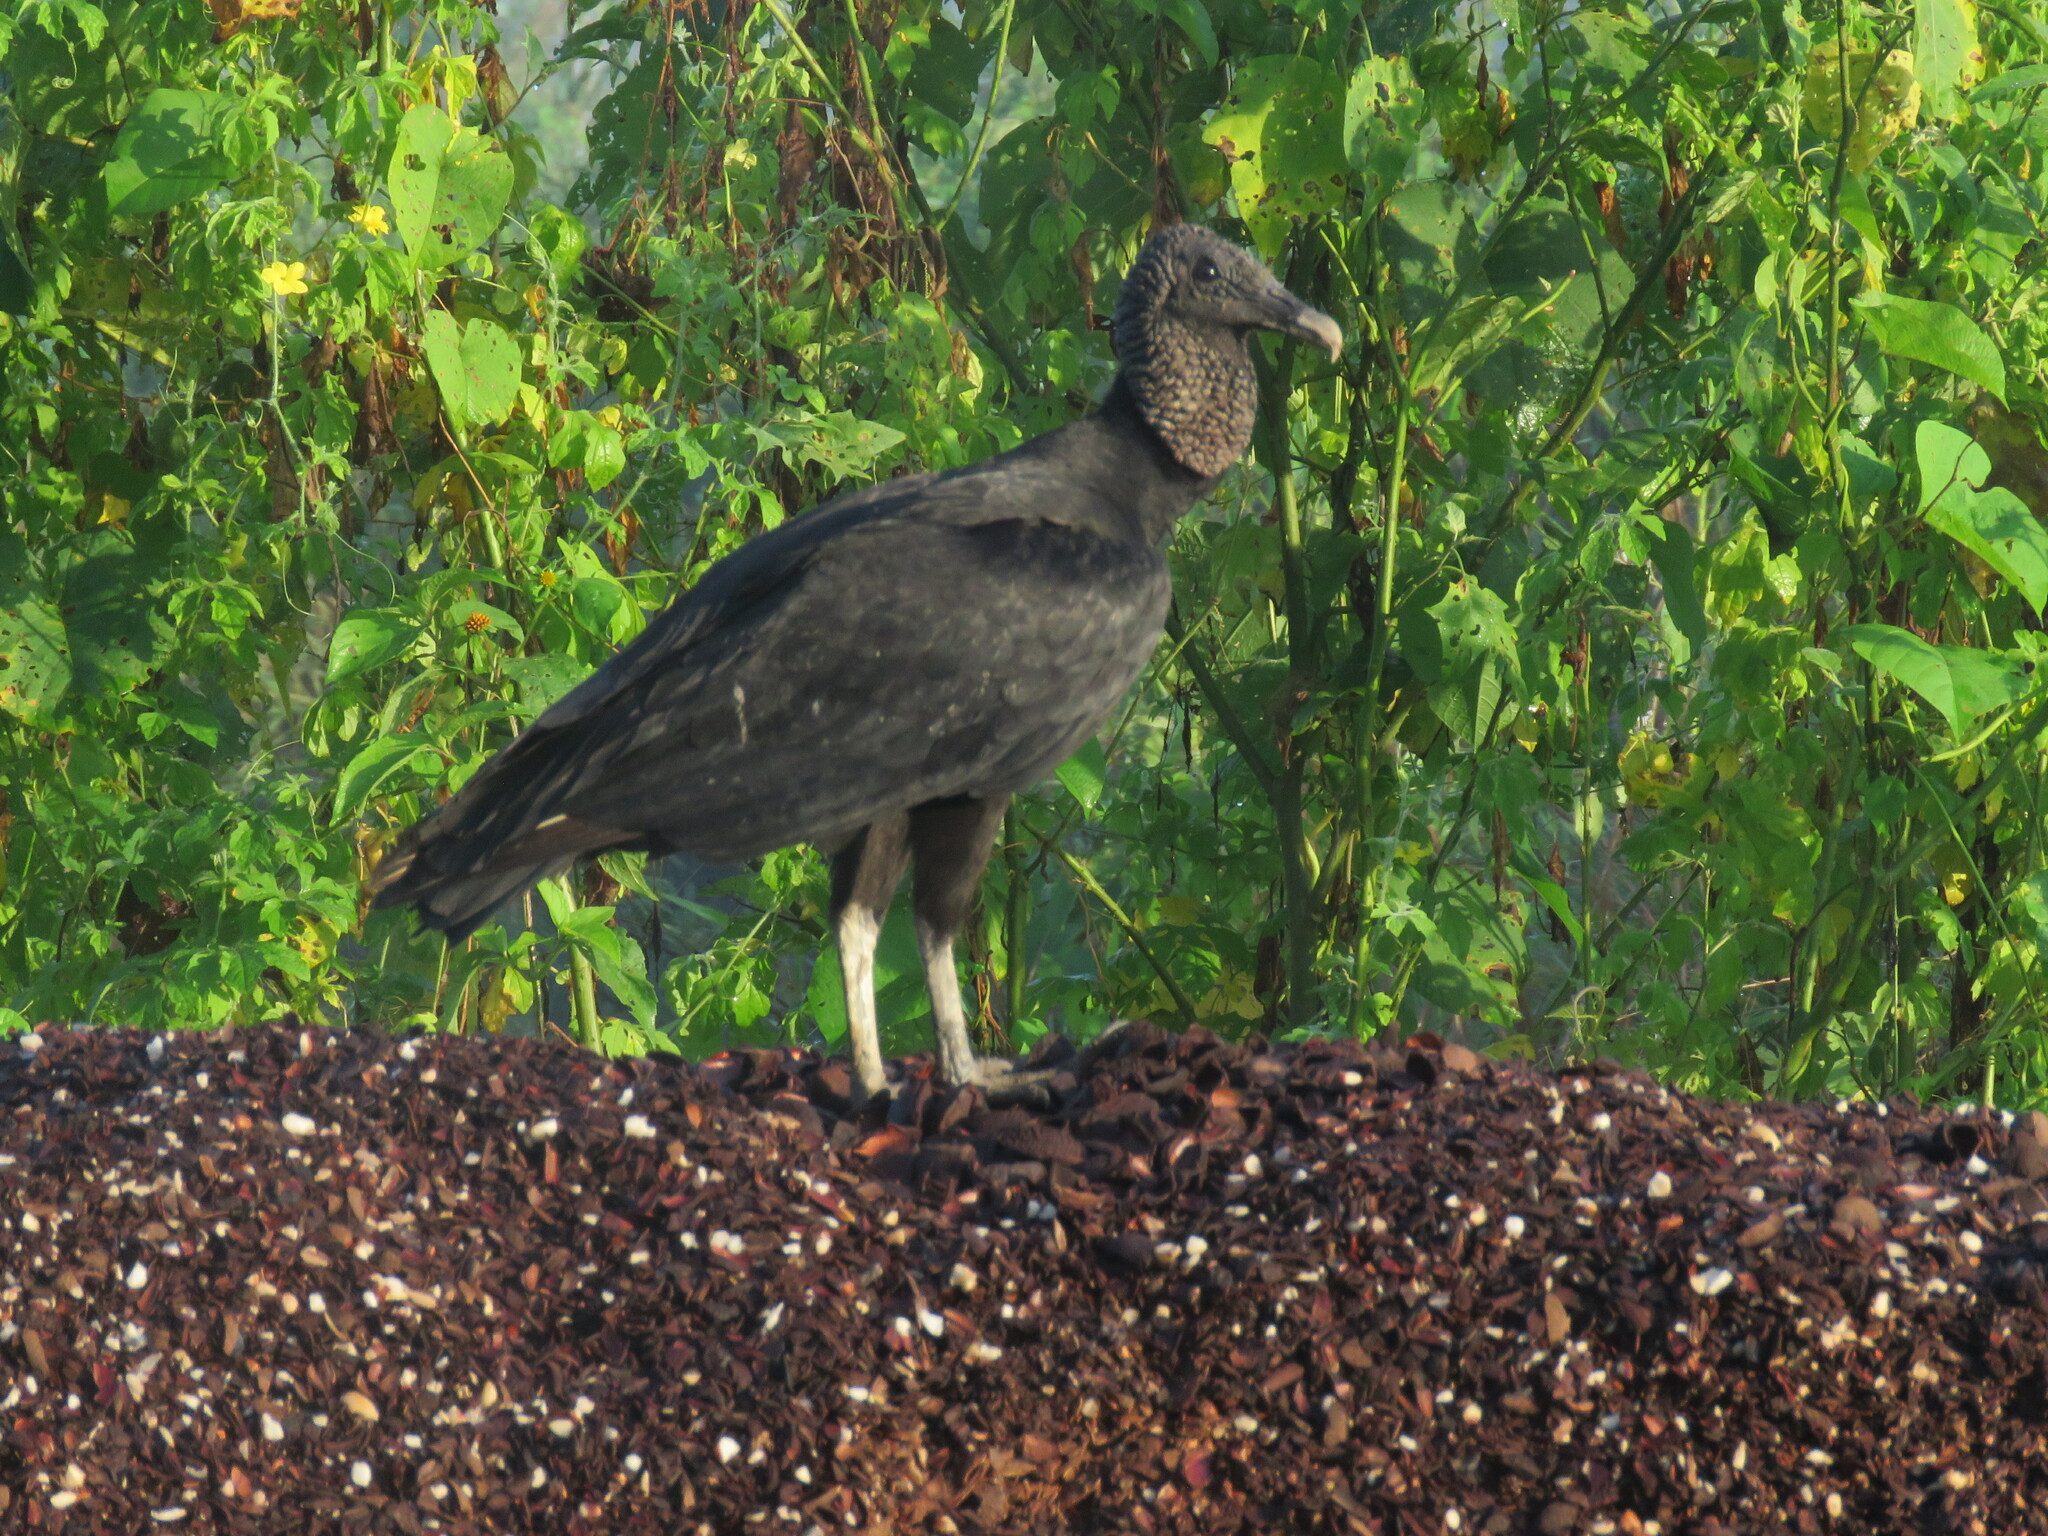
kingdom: Animalia
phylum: Chordata
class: Aves
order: Accipitriformes
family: Cathartidae
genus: Coragyps
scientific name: Coragyps atratus
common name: Black vulture
